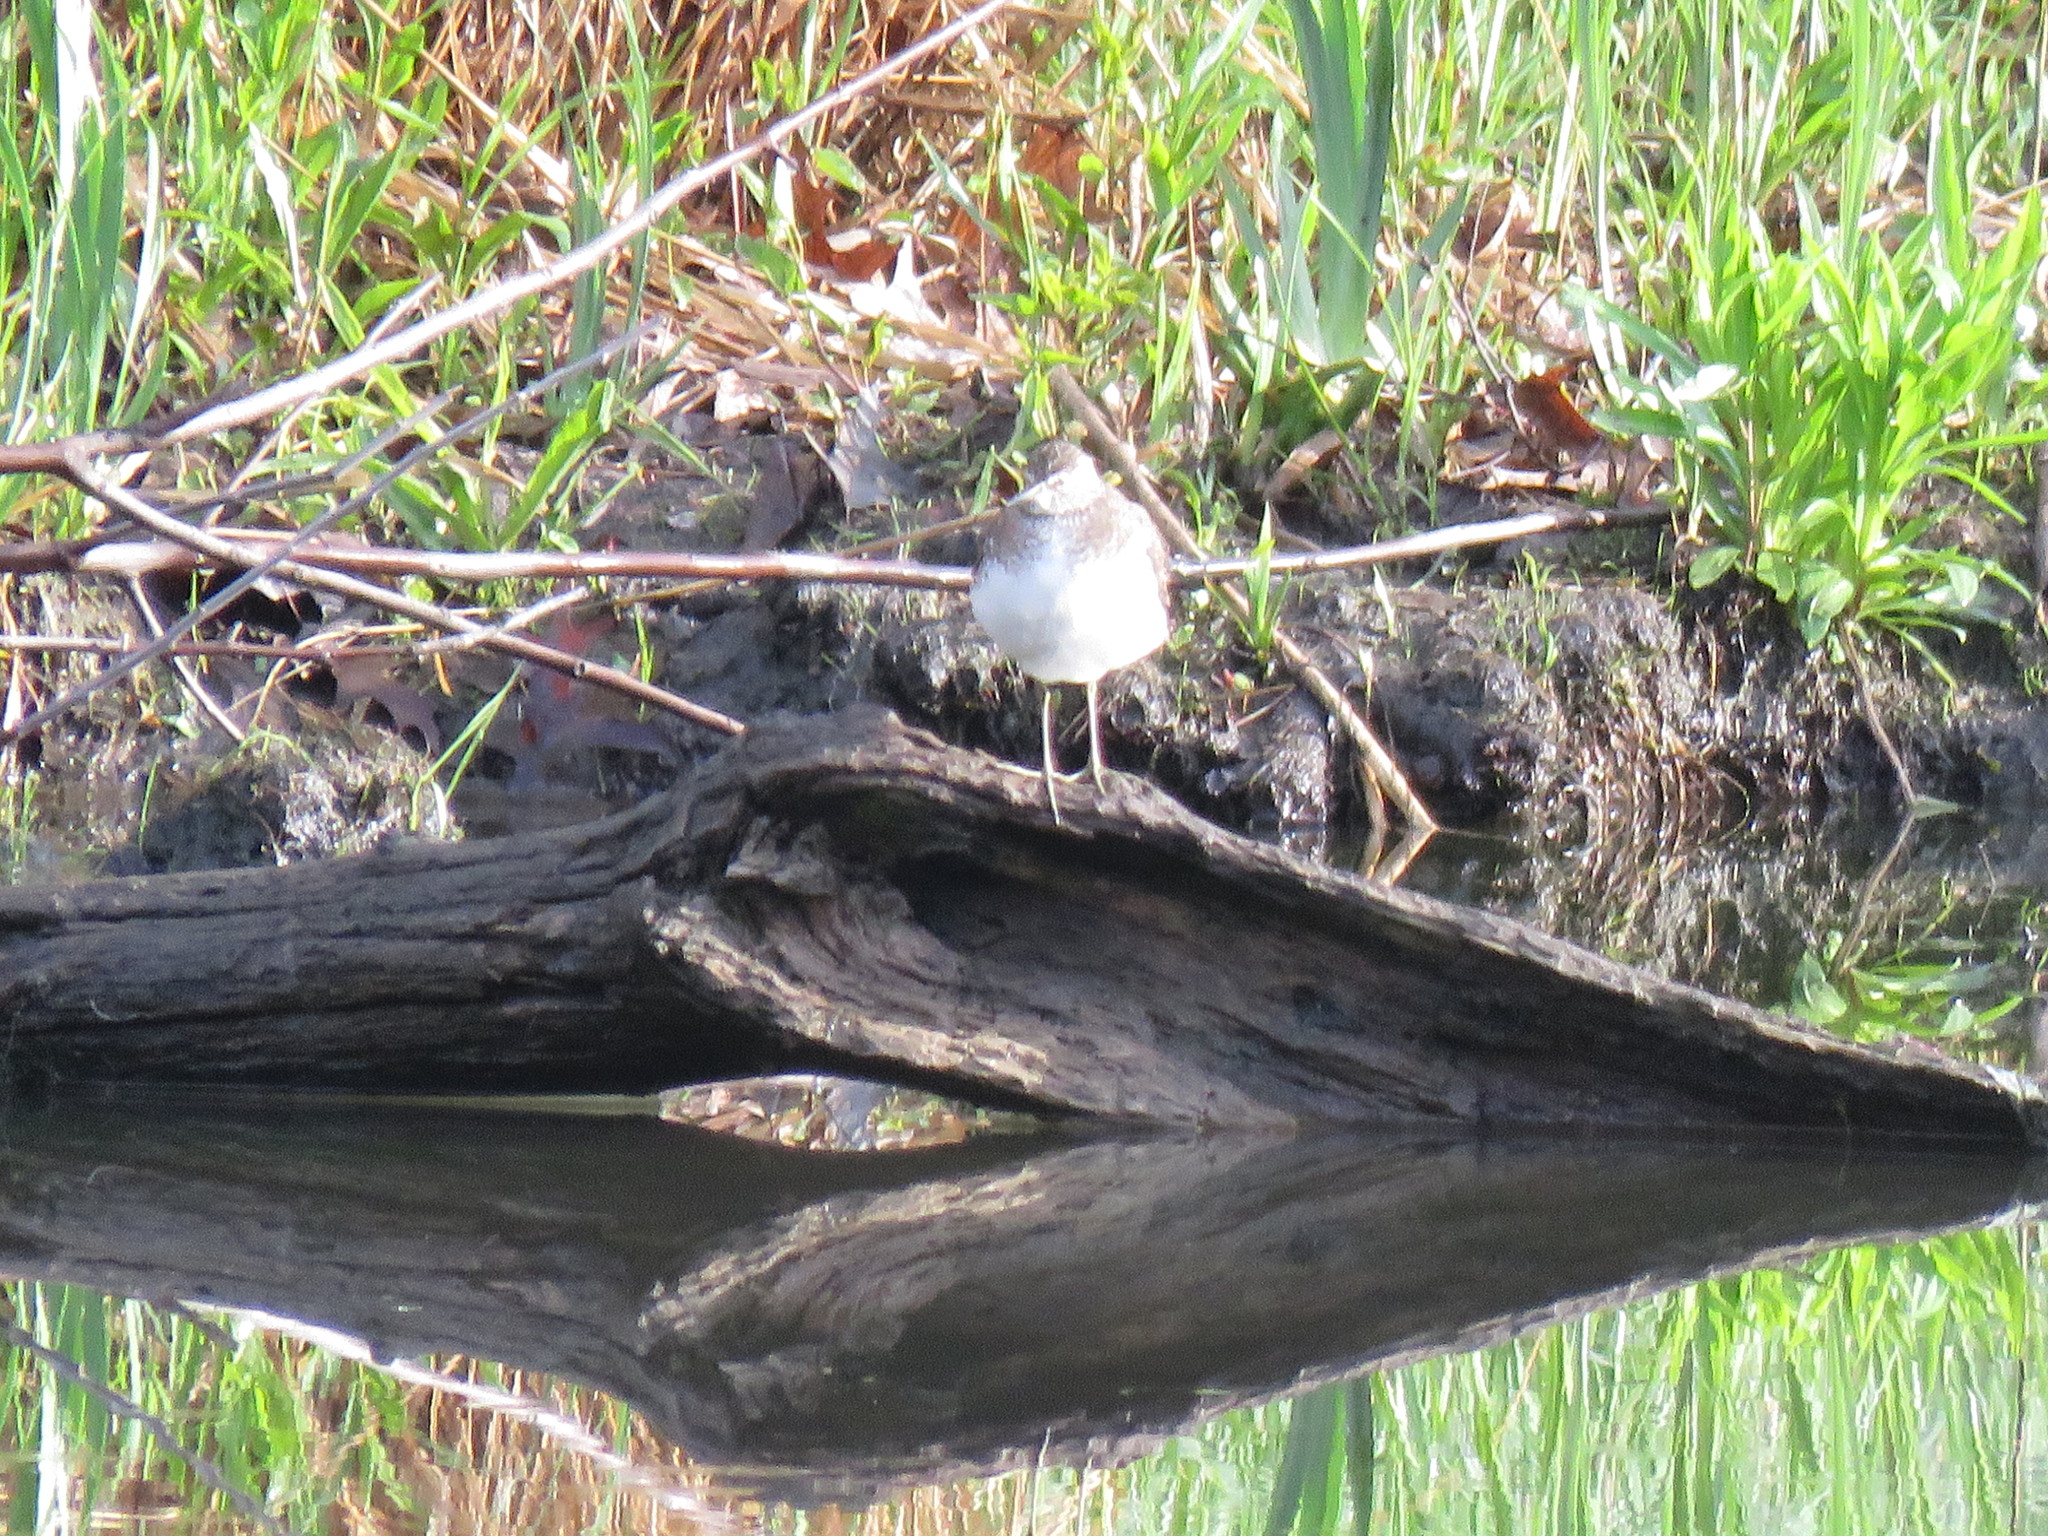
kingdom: Animalia
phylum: Chordata
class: Aves
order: Charadriiformes
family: Scolopacidae
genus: Tringa
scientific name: Tringa solitaria
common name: Solitary sandpiper
